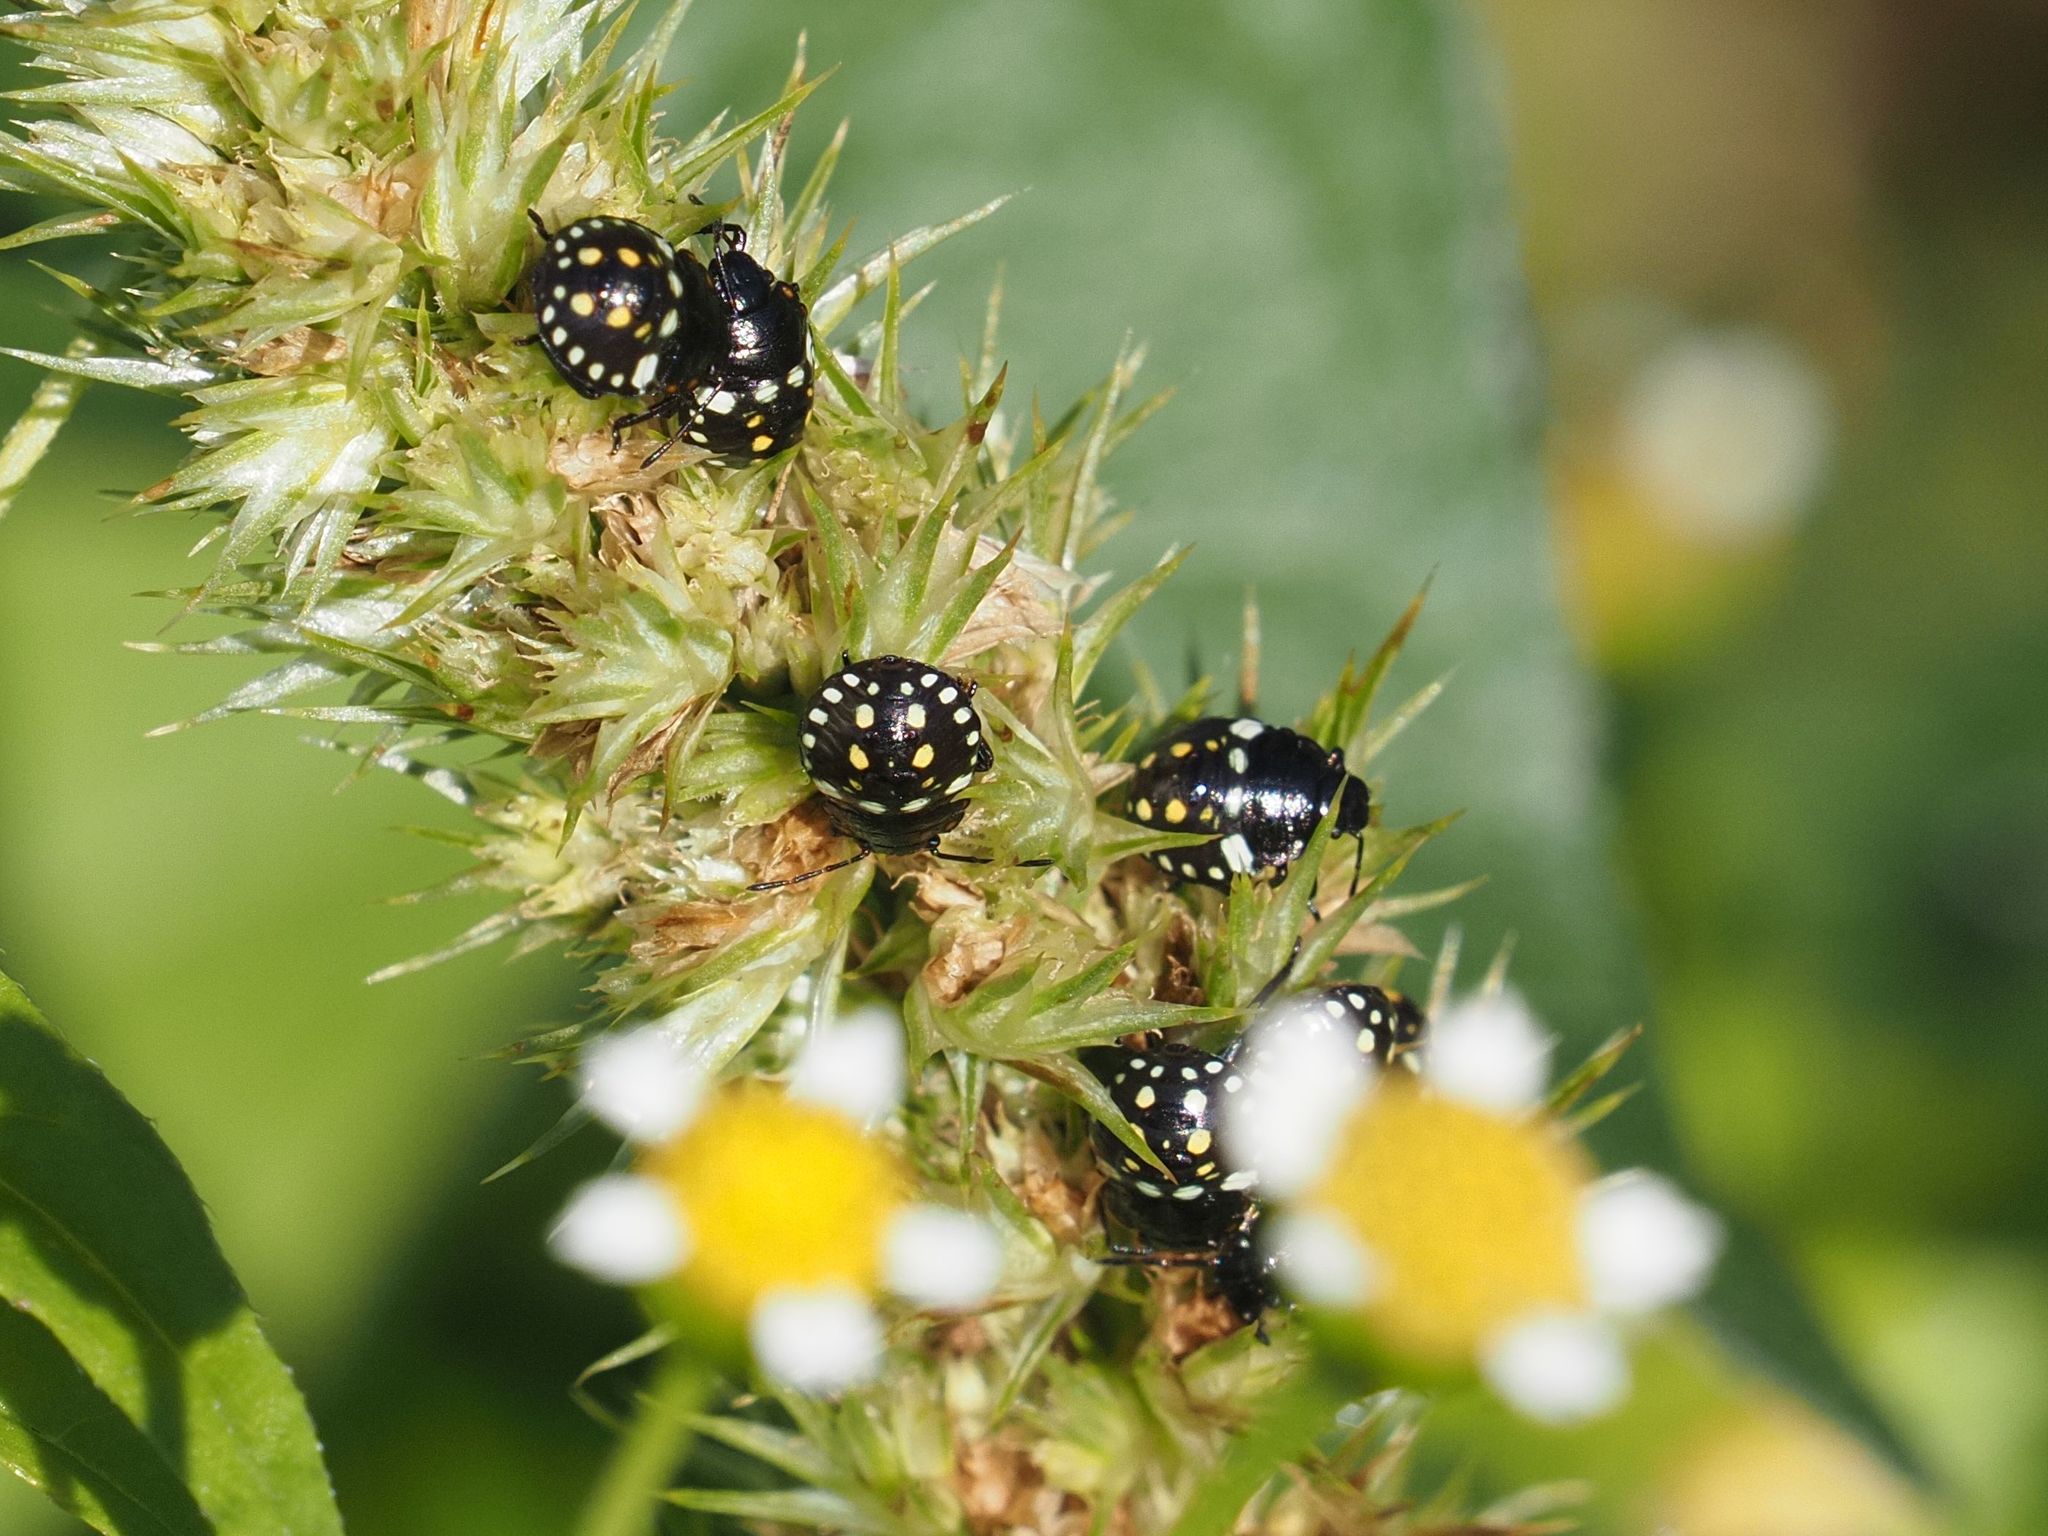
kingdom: Animalia
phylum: Arthropoda
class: Insecta
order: Hemiptera
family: Pentatomidae
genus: Nezara
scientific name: Nezara viridula
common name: Southern green stink bug
